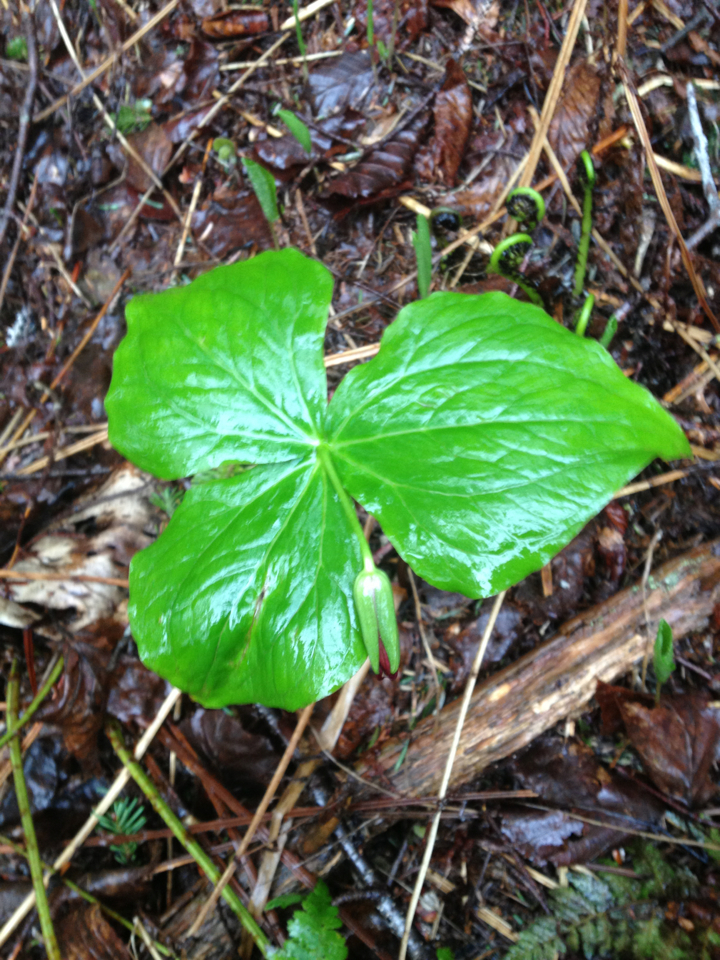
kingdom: Plantae
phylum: Tracheophyta
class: Liliopsida
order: Liliales
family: Melanthiaceae
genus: Trillium
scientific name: Trillium erectum
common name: Purple trillium
